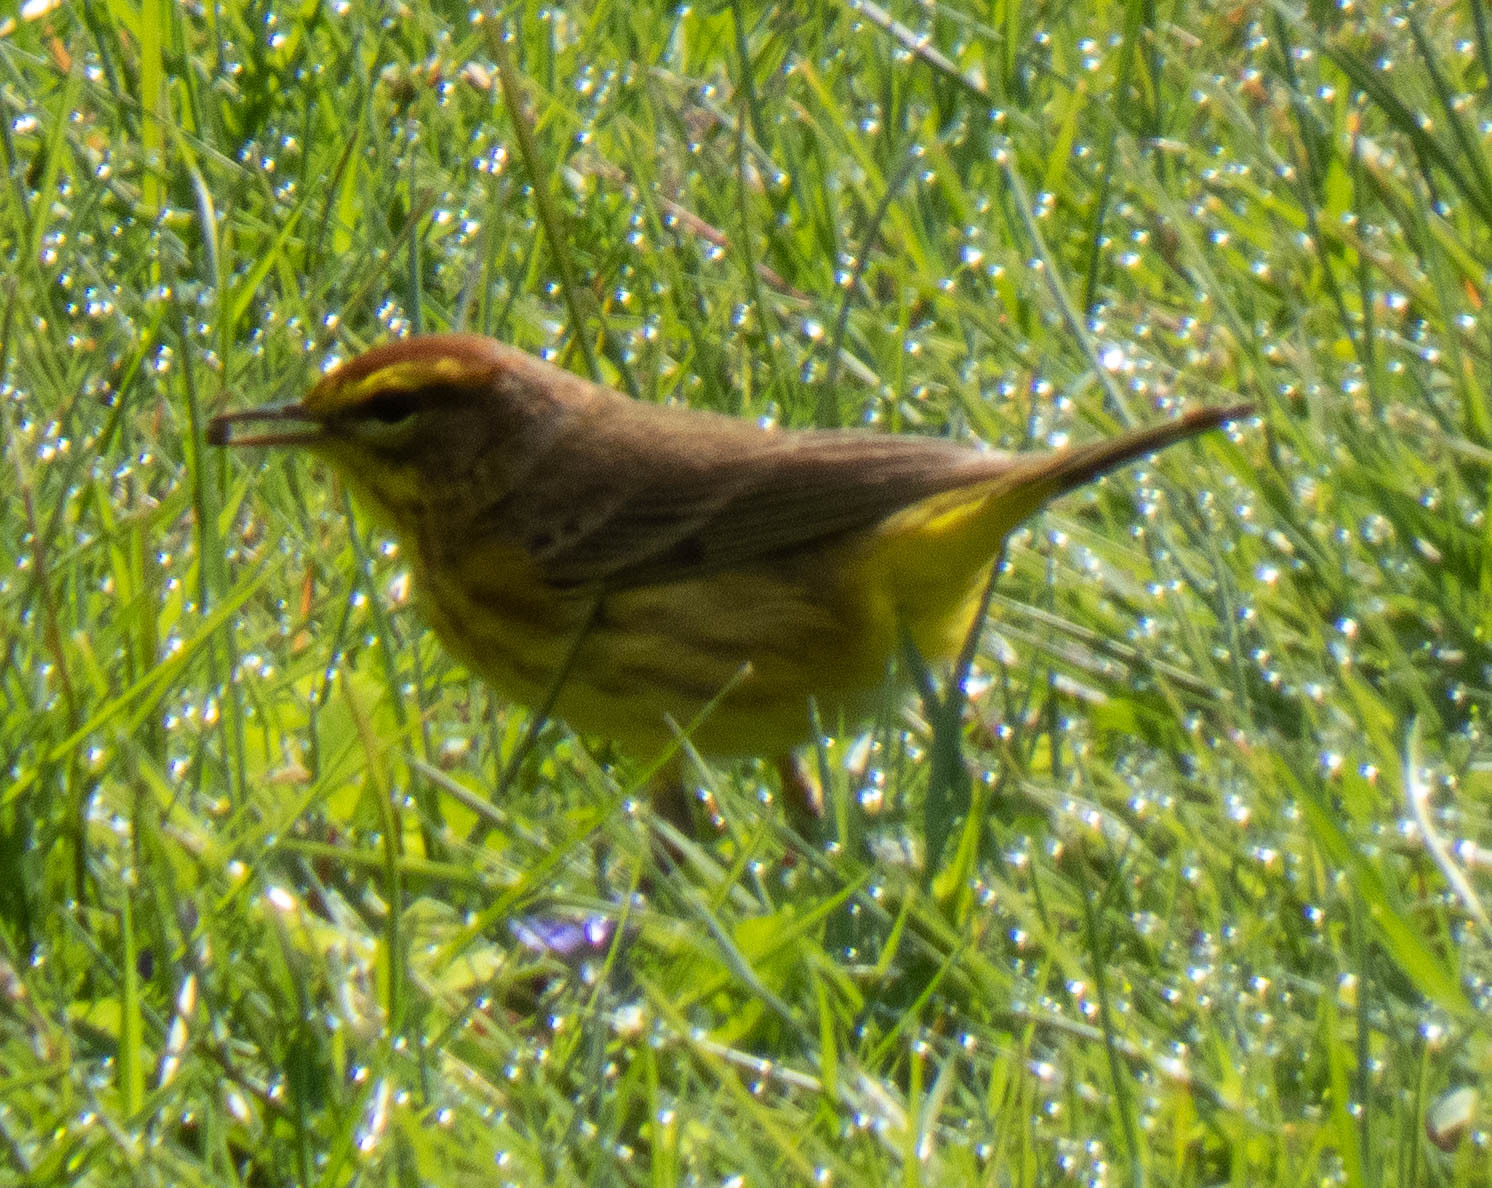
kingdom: Animalia
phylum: Chordata
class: Aves
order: Passeriformes
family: Parulidae
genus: Setophaga
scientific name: Setophaga palmarum
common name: Palm warbler
